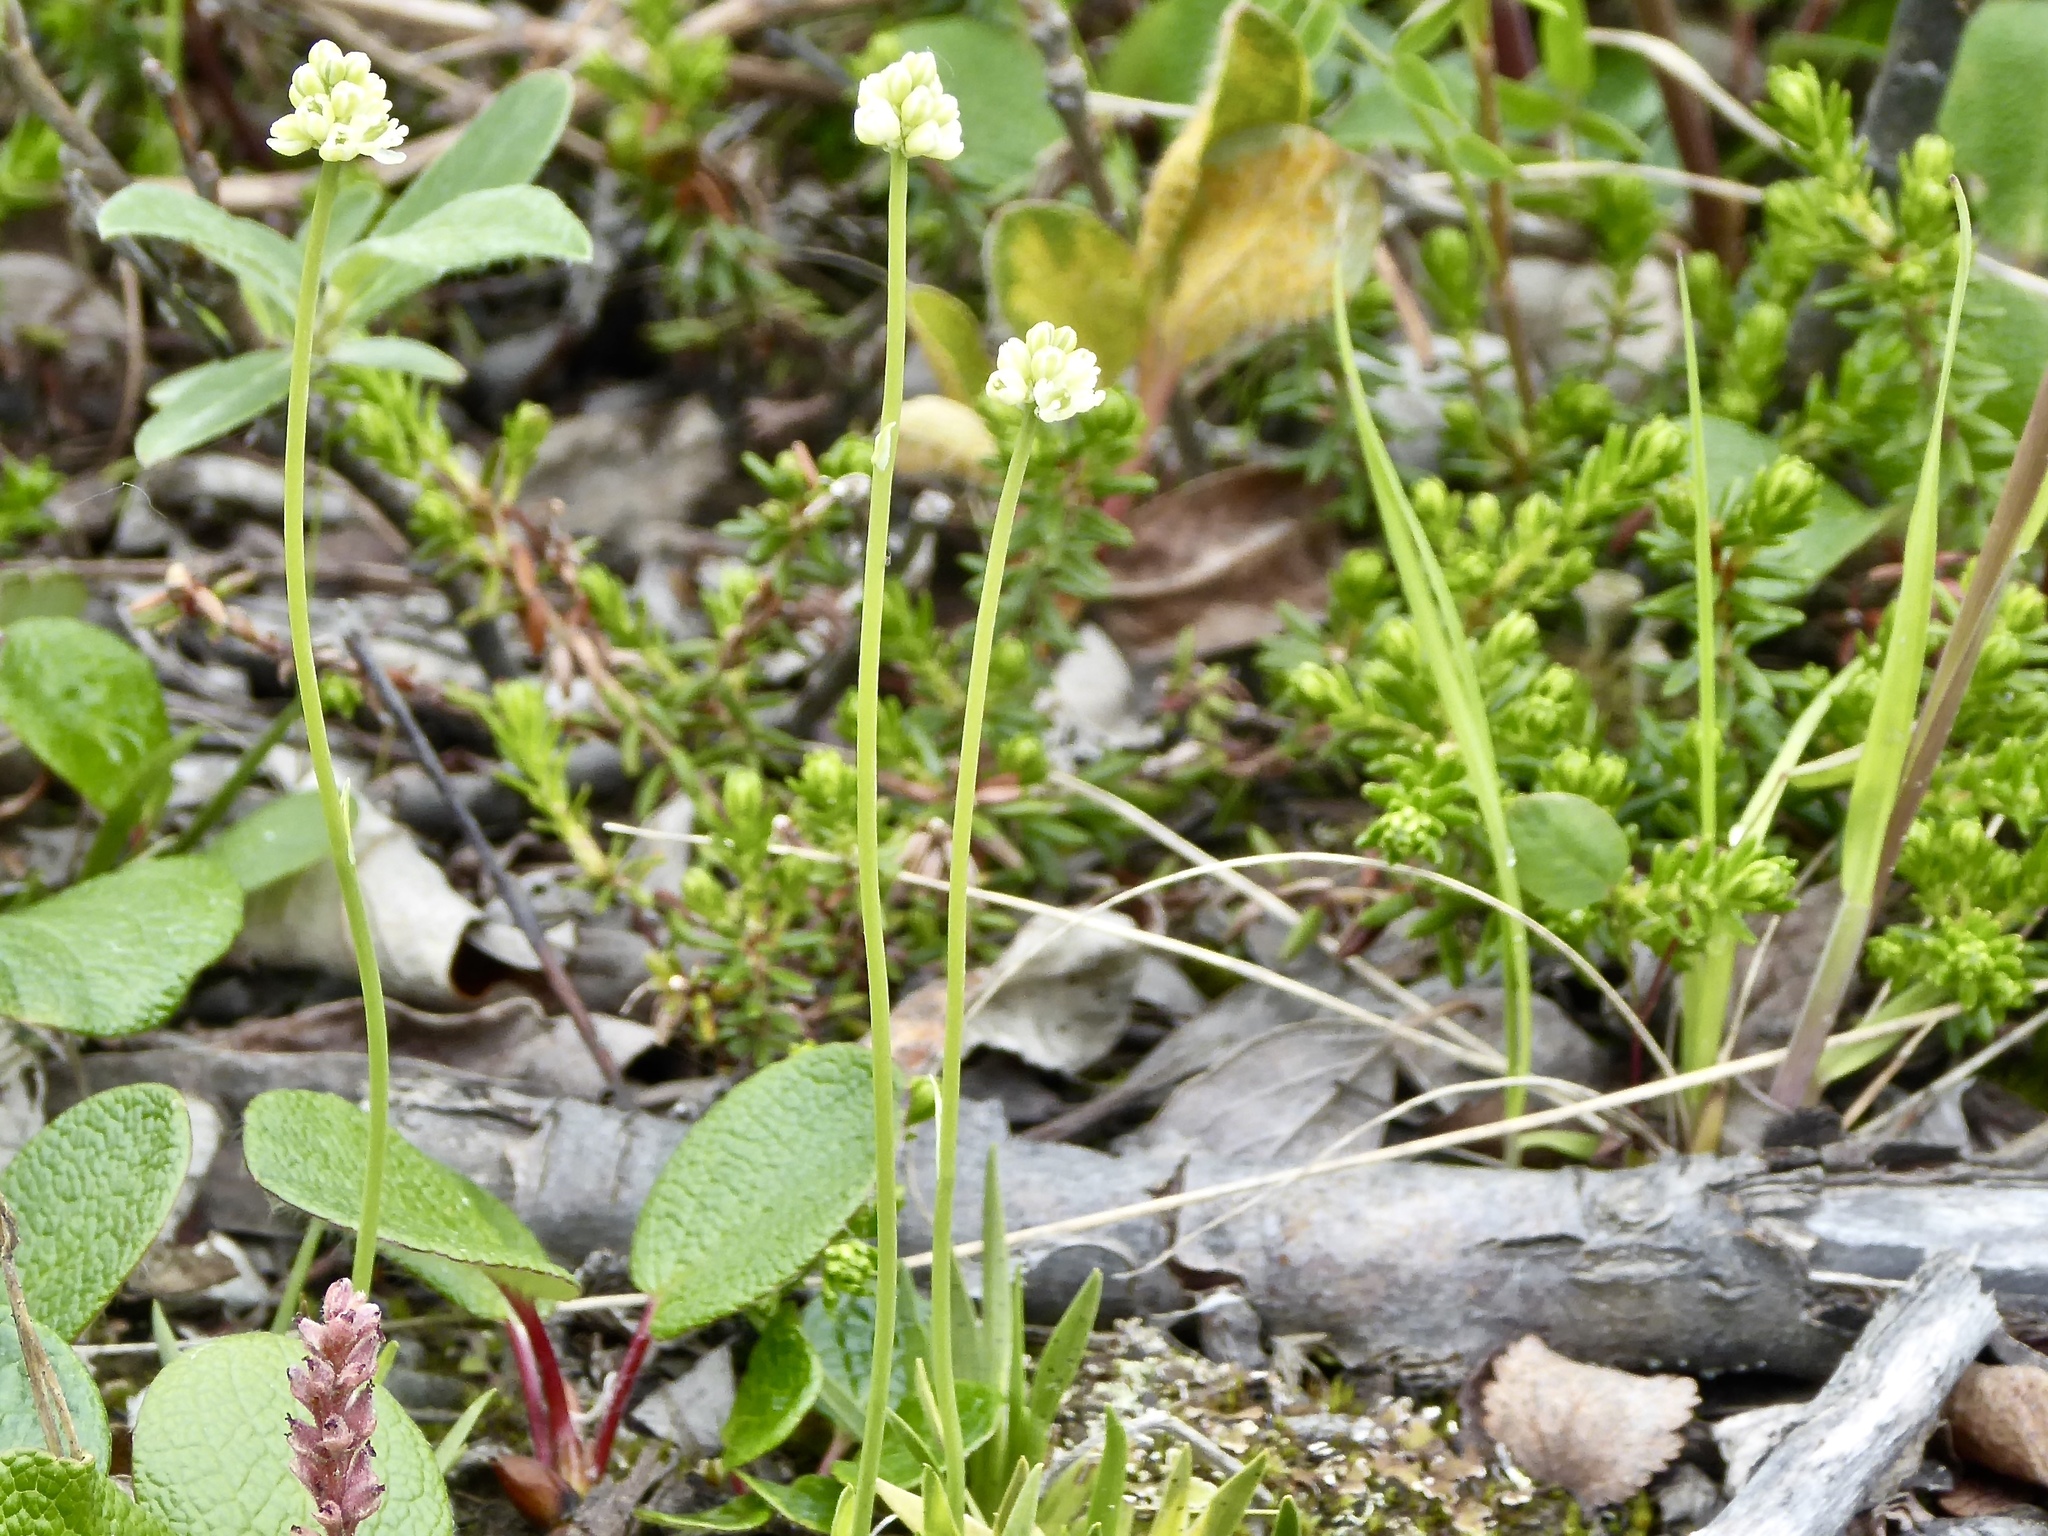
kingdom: Plantae
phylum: Tracheophyta
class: Liliopsida
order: Alismatales
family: Tofieldiaceae
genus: Tofieldia
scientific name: Tofieldia pusilla
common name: Scottish false asphodel
